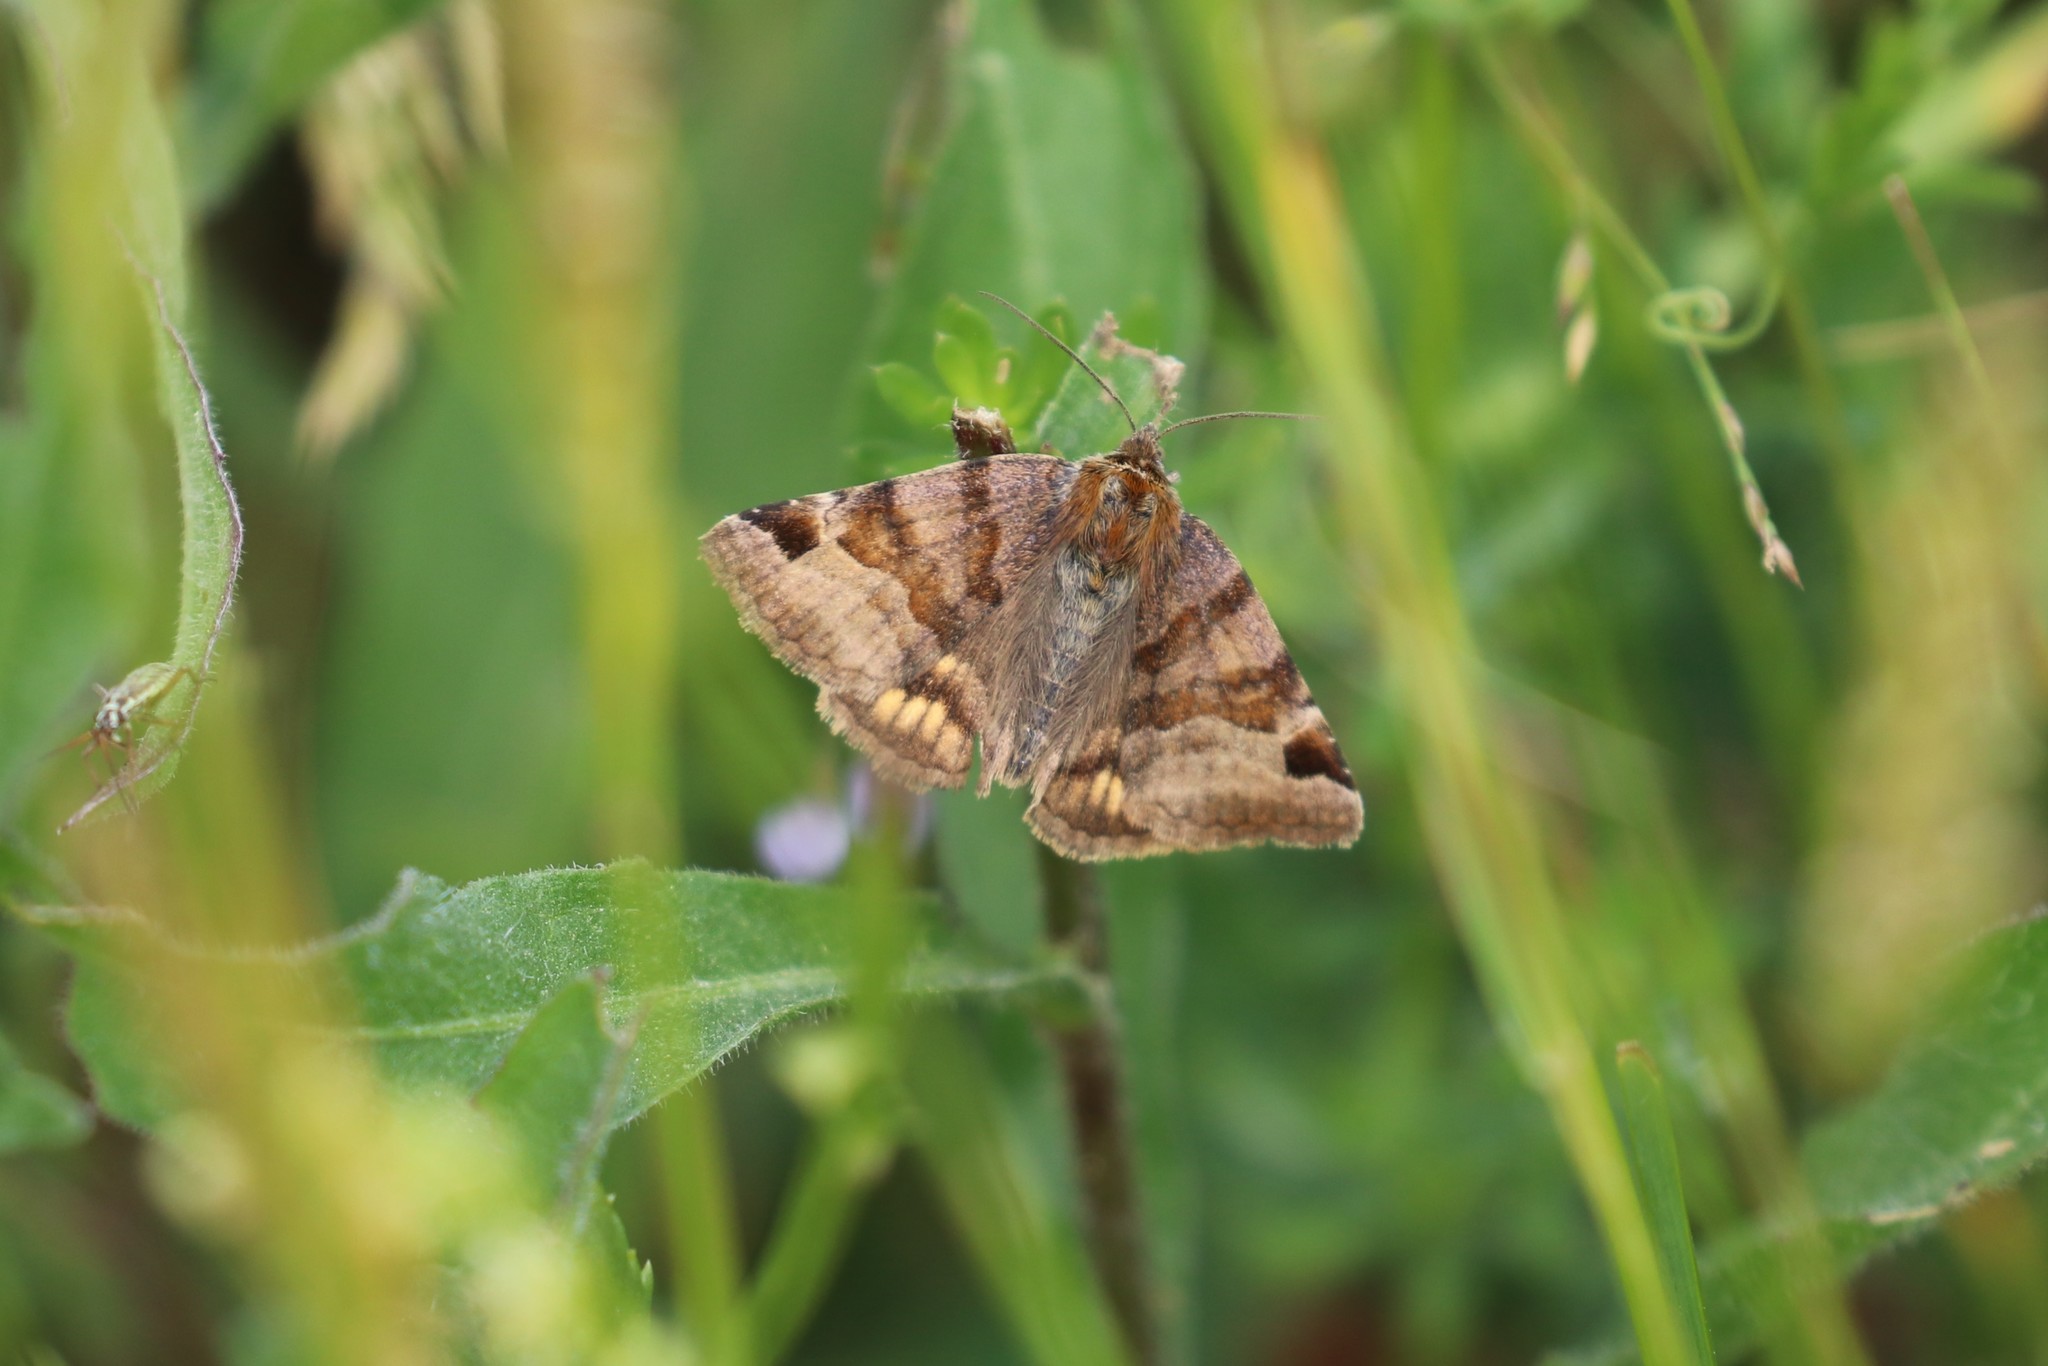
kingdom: Animalia
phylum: Arthropoda
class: Insecta
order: Lepidoptera
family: Erebidae
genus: Euclidia
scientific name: Euclidia glyphica
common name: Burnet companion
